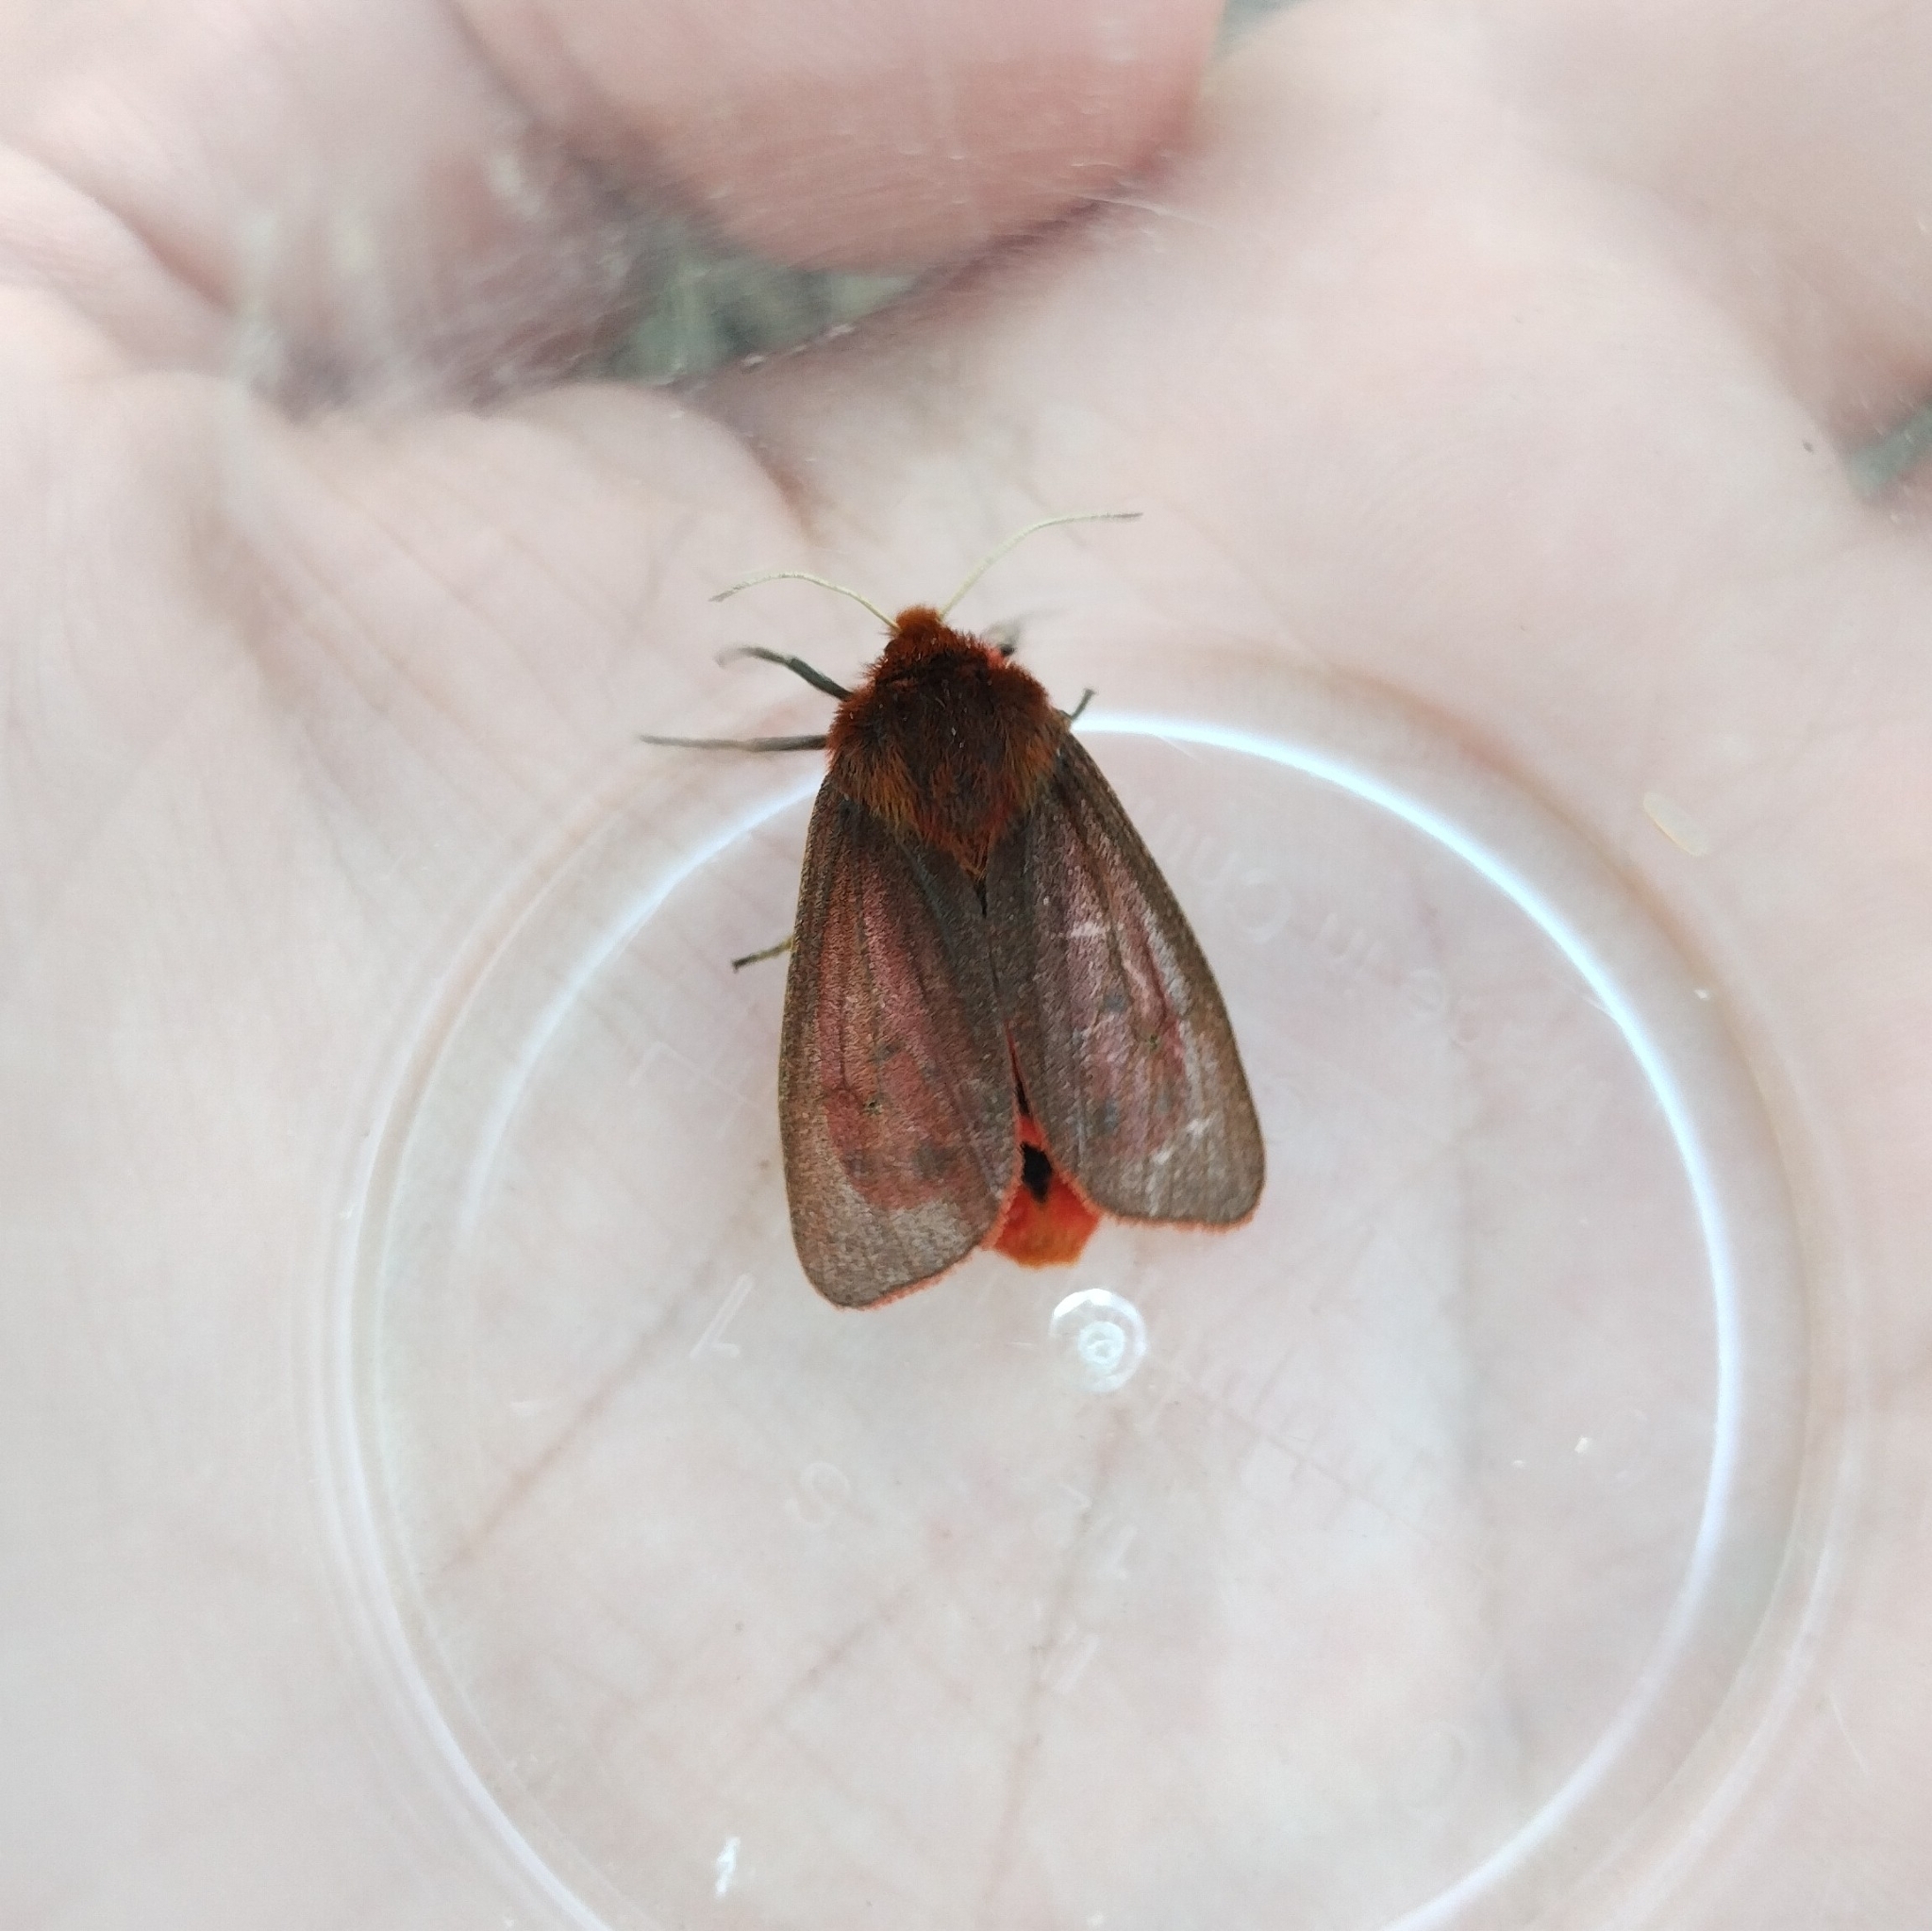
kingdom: Animalia
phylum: Arthropoda
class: Insecta
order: Lepidoptera
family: Erebidae
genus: Phragmatobia
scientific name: Phragmatobia fuliginosa
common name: Ruby tiger
